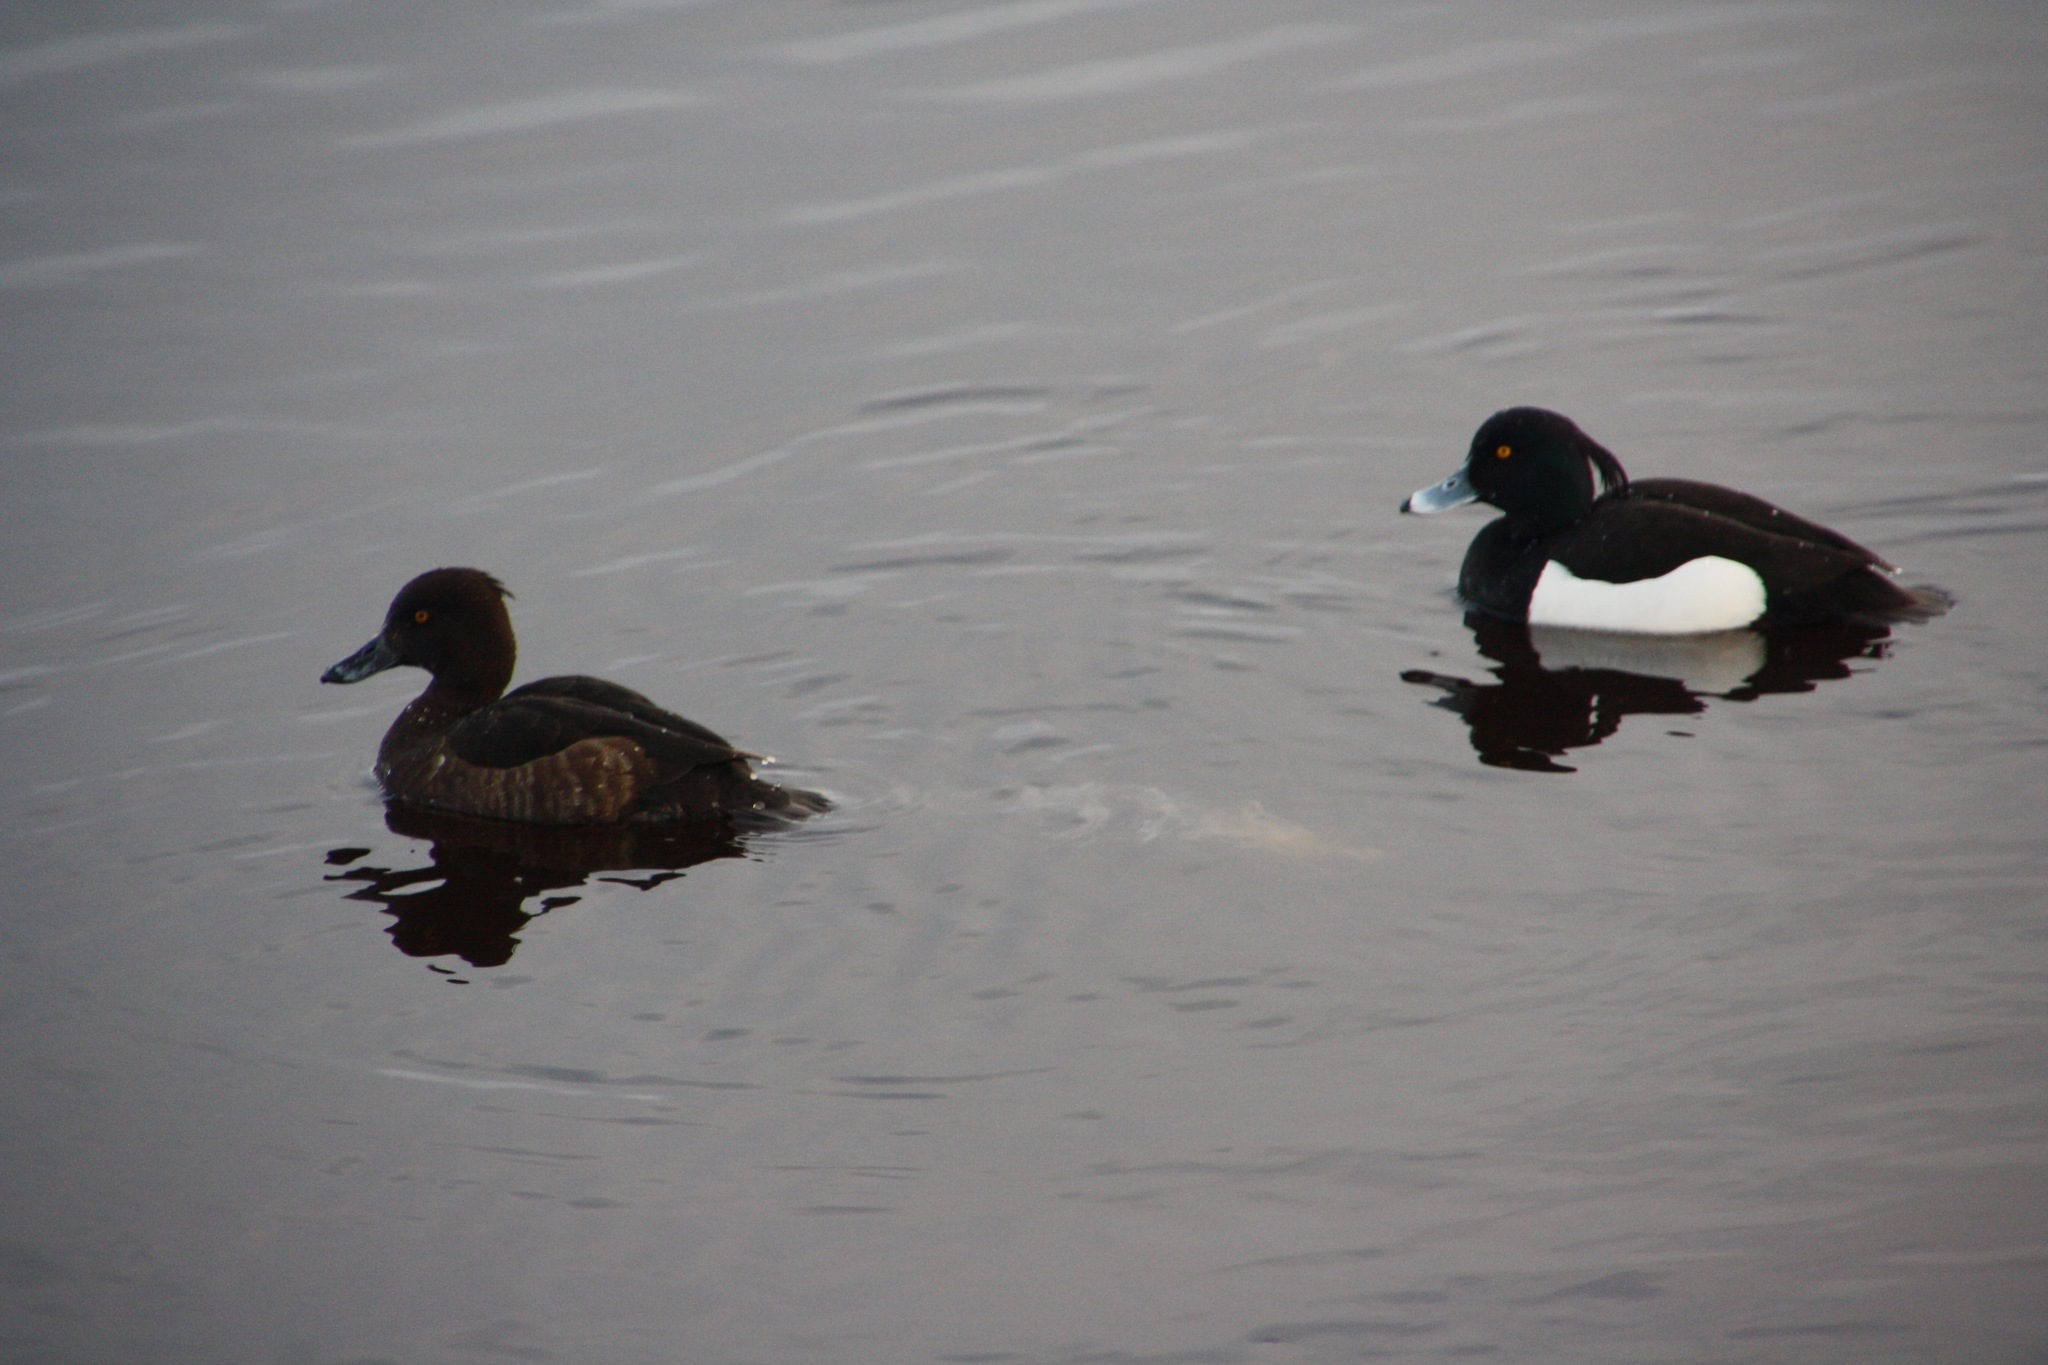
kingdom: Animalia
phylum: Chordata
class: Aves
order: Anseriformes
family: Anatidae
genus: Aythya
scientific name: Aythya fuligula
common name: Tufted duck
